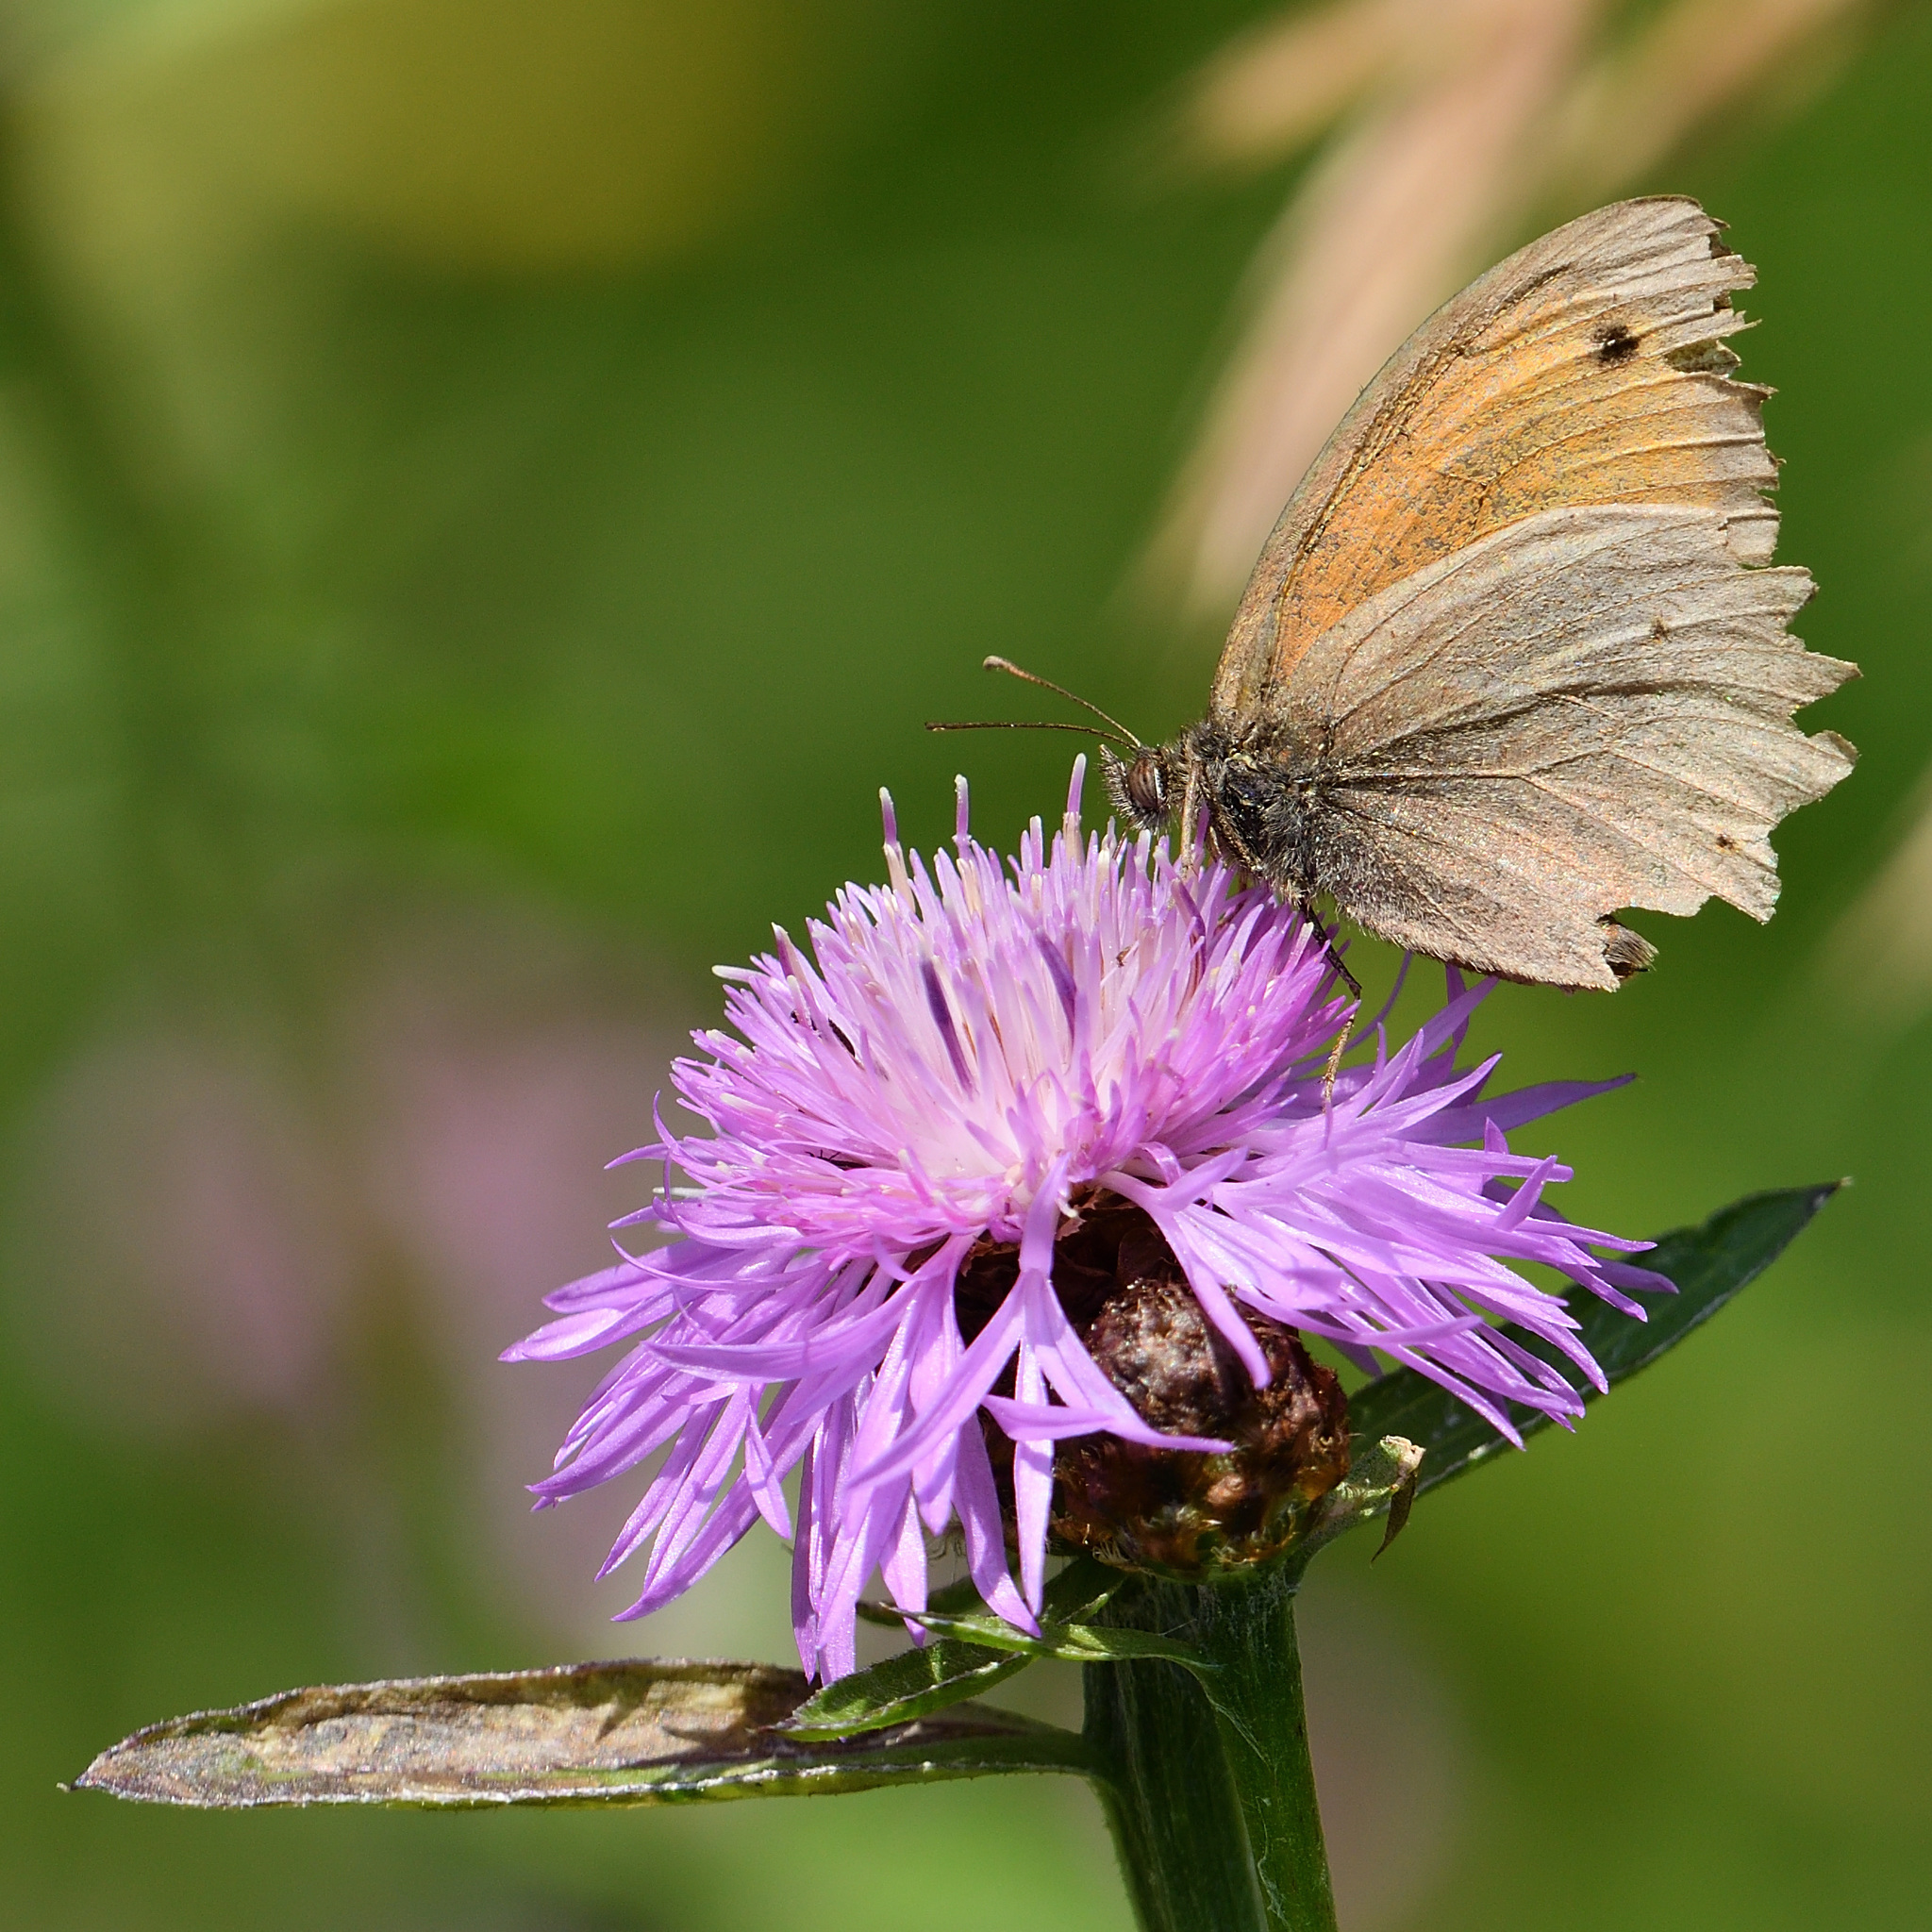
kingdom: Animalia
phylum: Arthropoda
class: Insecta
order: Lepidoptera
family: Nymphalidae
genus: Maniola
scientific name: Maniola jurtina
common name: Meadow brown
